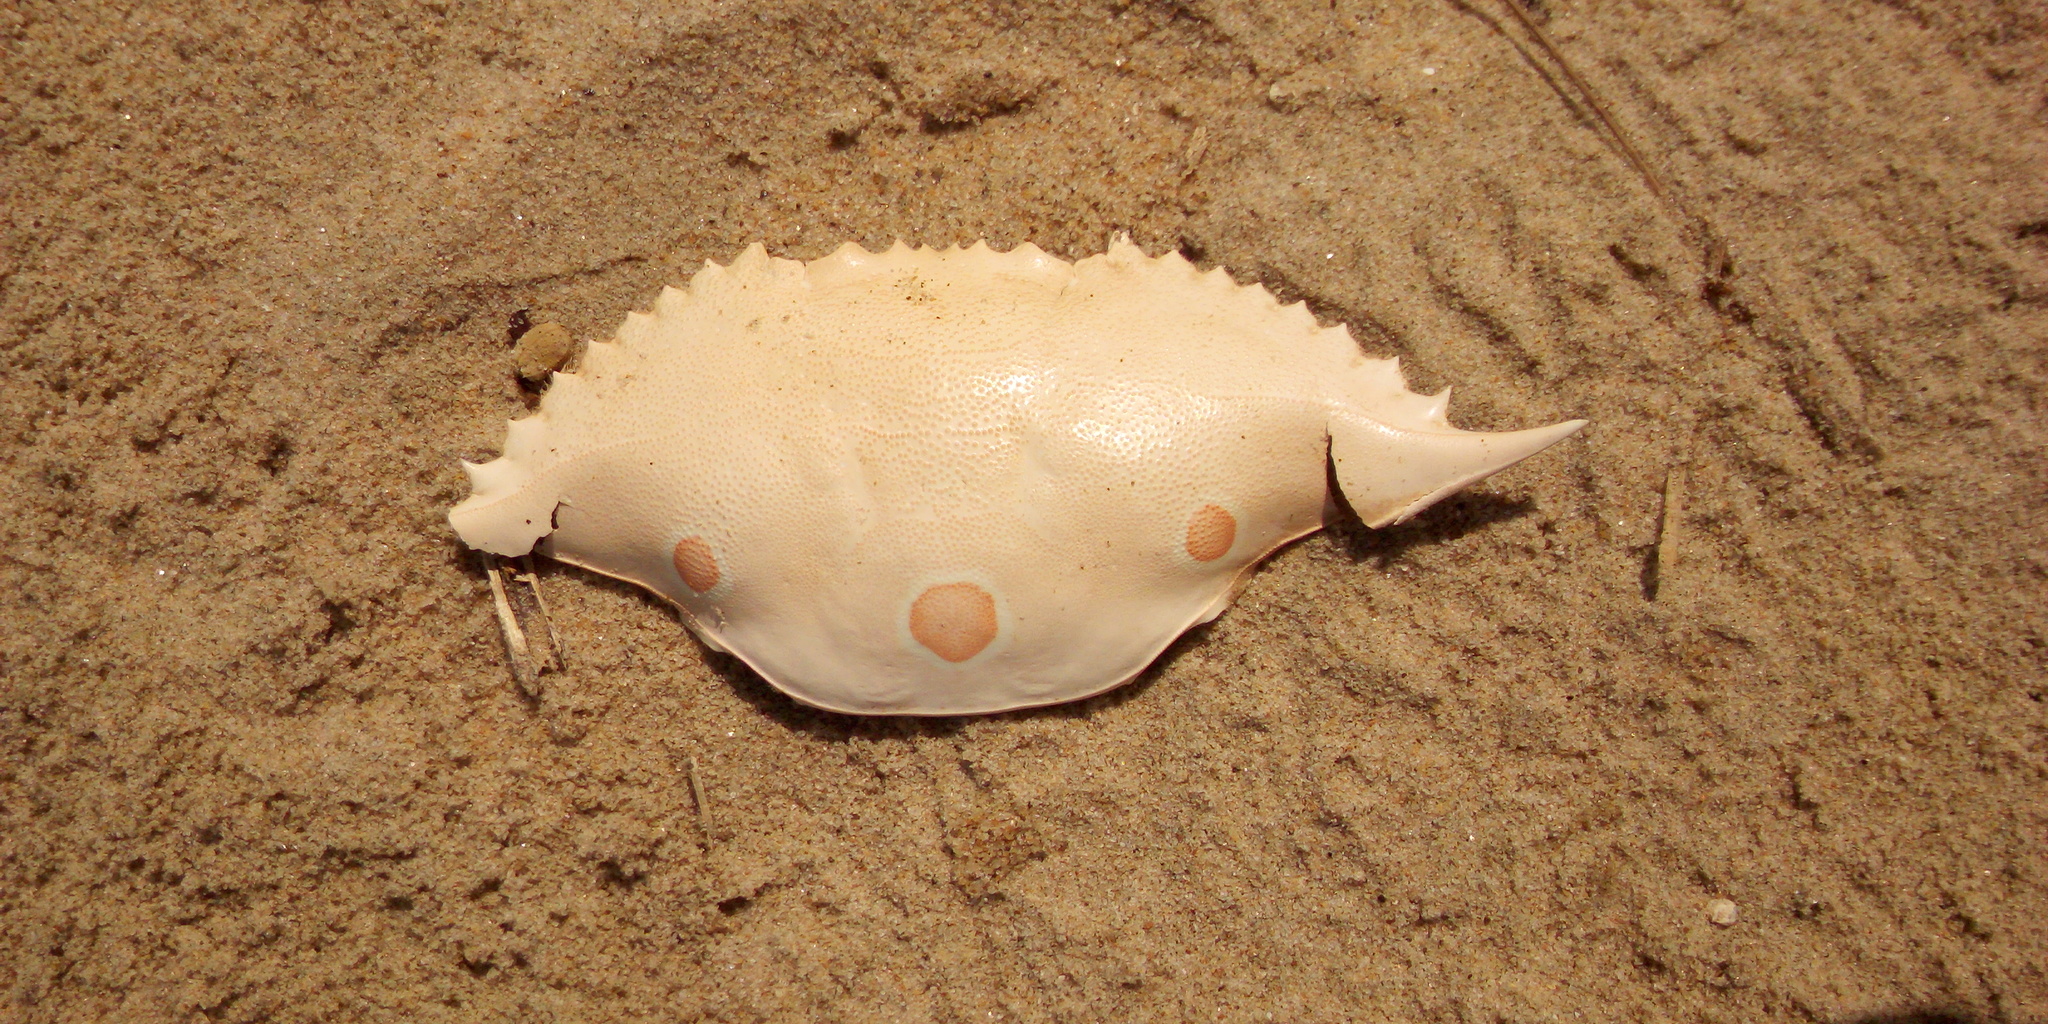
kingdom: Animalia
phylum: Arthropoda
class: Malacostraca
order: Decapoda
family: Portunidae
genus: Portunus
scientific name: Portunus sanguinolentus
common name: Blood-spotted swimming crab
